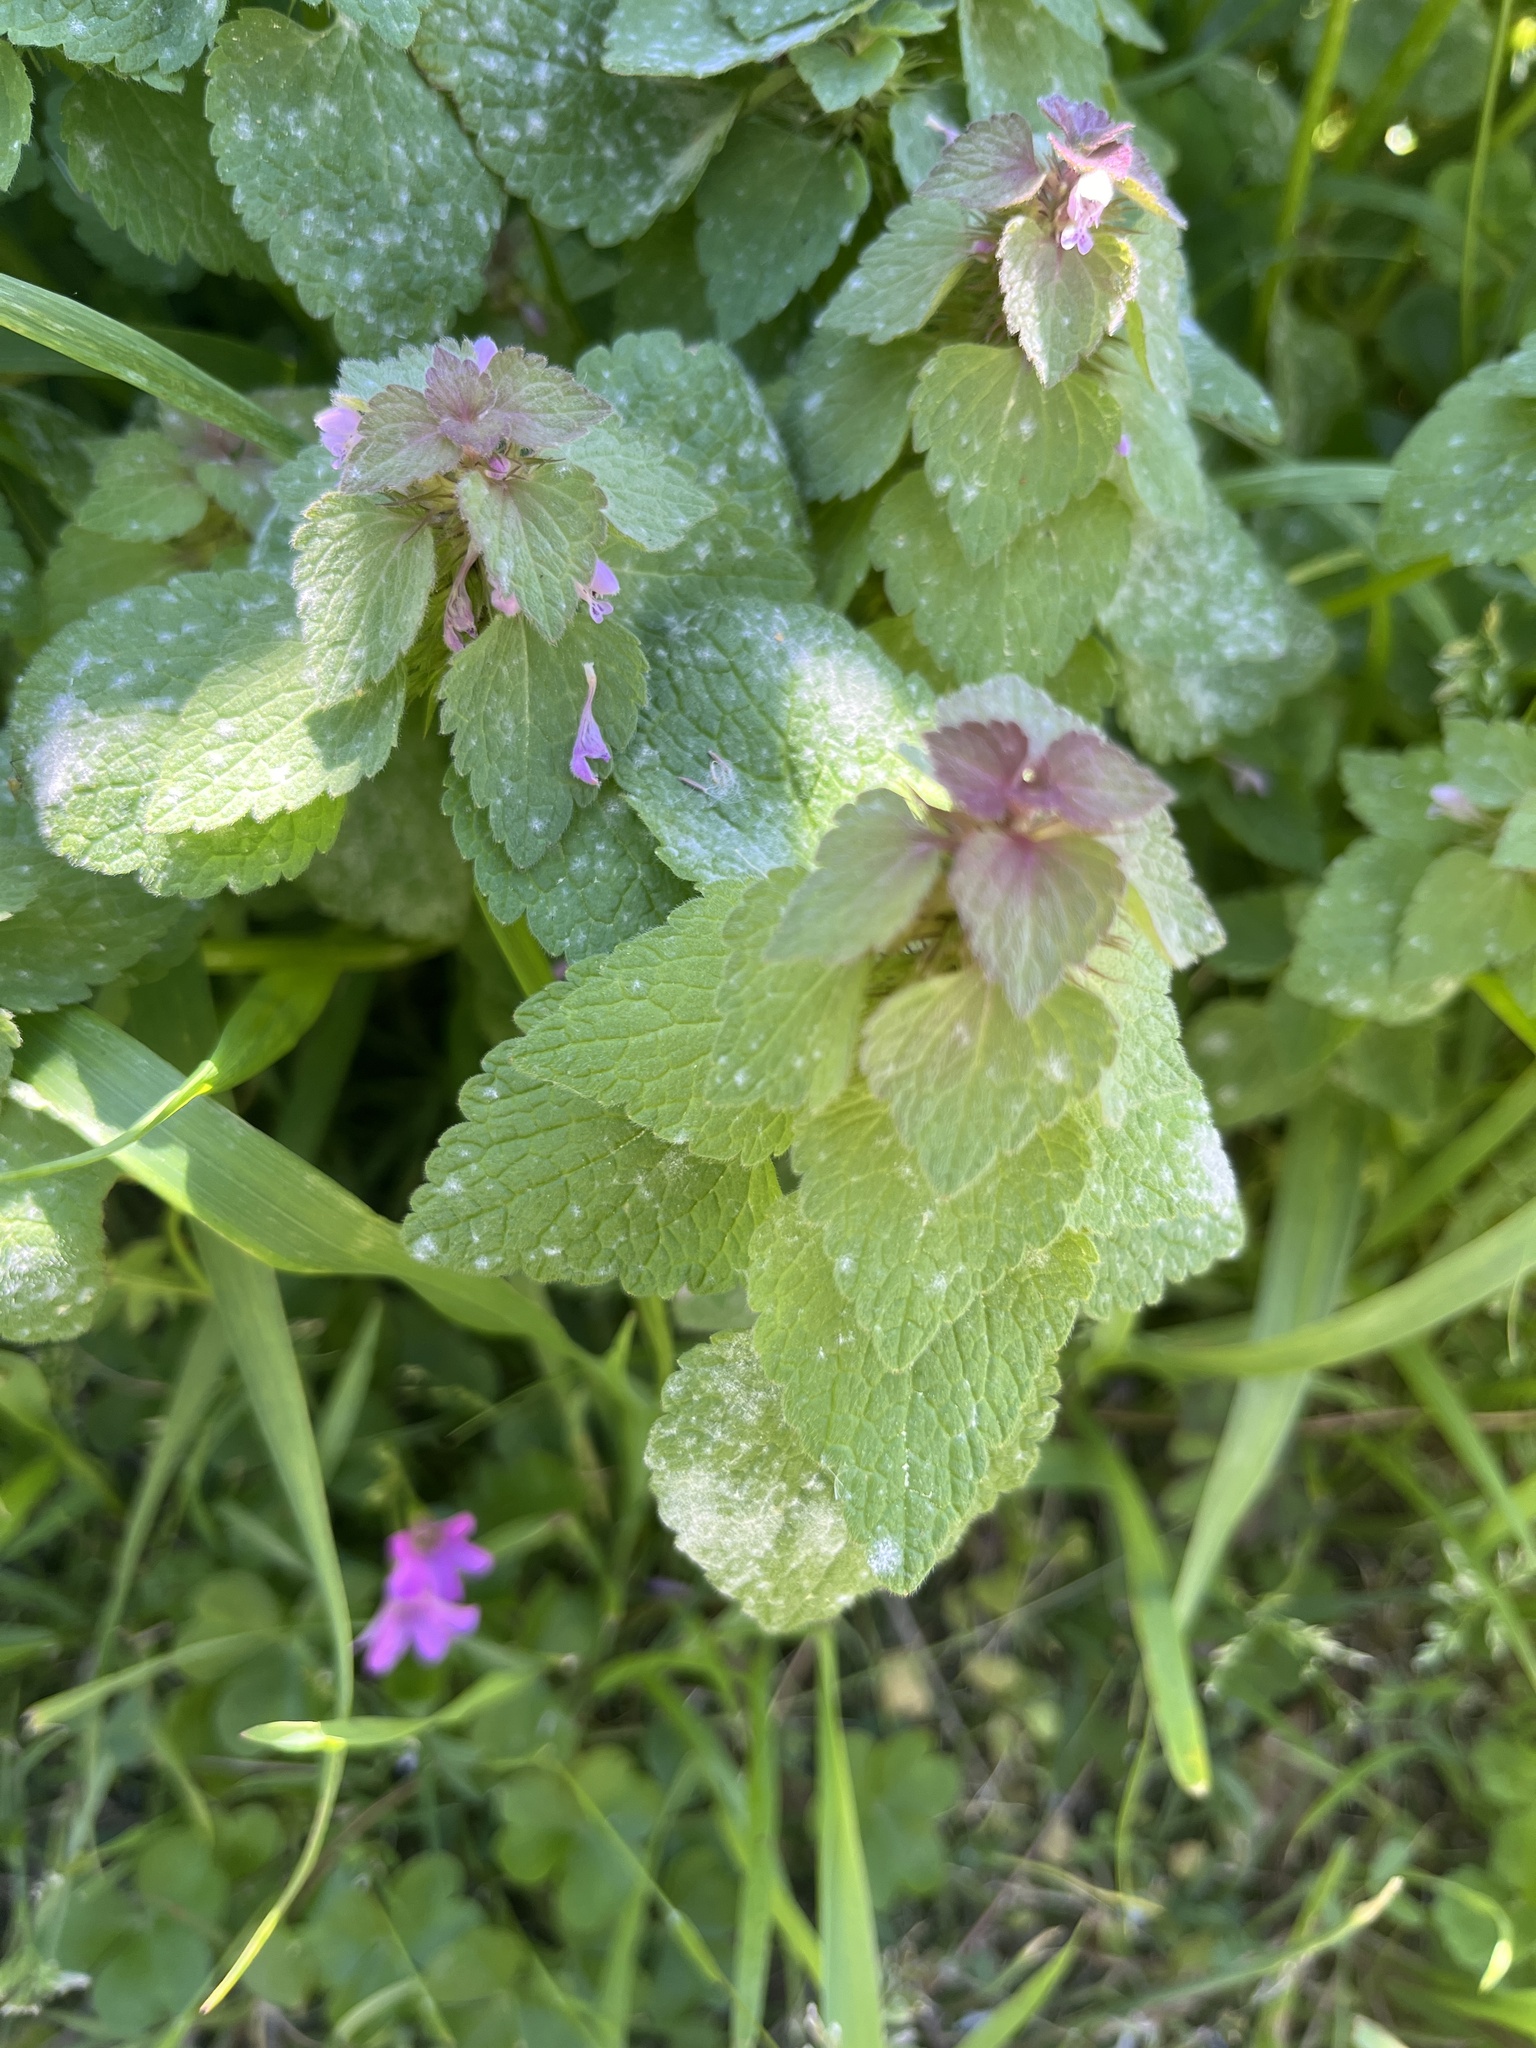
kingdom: Fungi
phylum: Ascomycota
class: Leotiomycetes
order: Helotiales
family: Erysiphaceae
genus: Neoerysiphe
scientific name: Neoerysiphe galeopsidis
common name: Mint mildew
